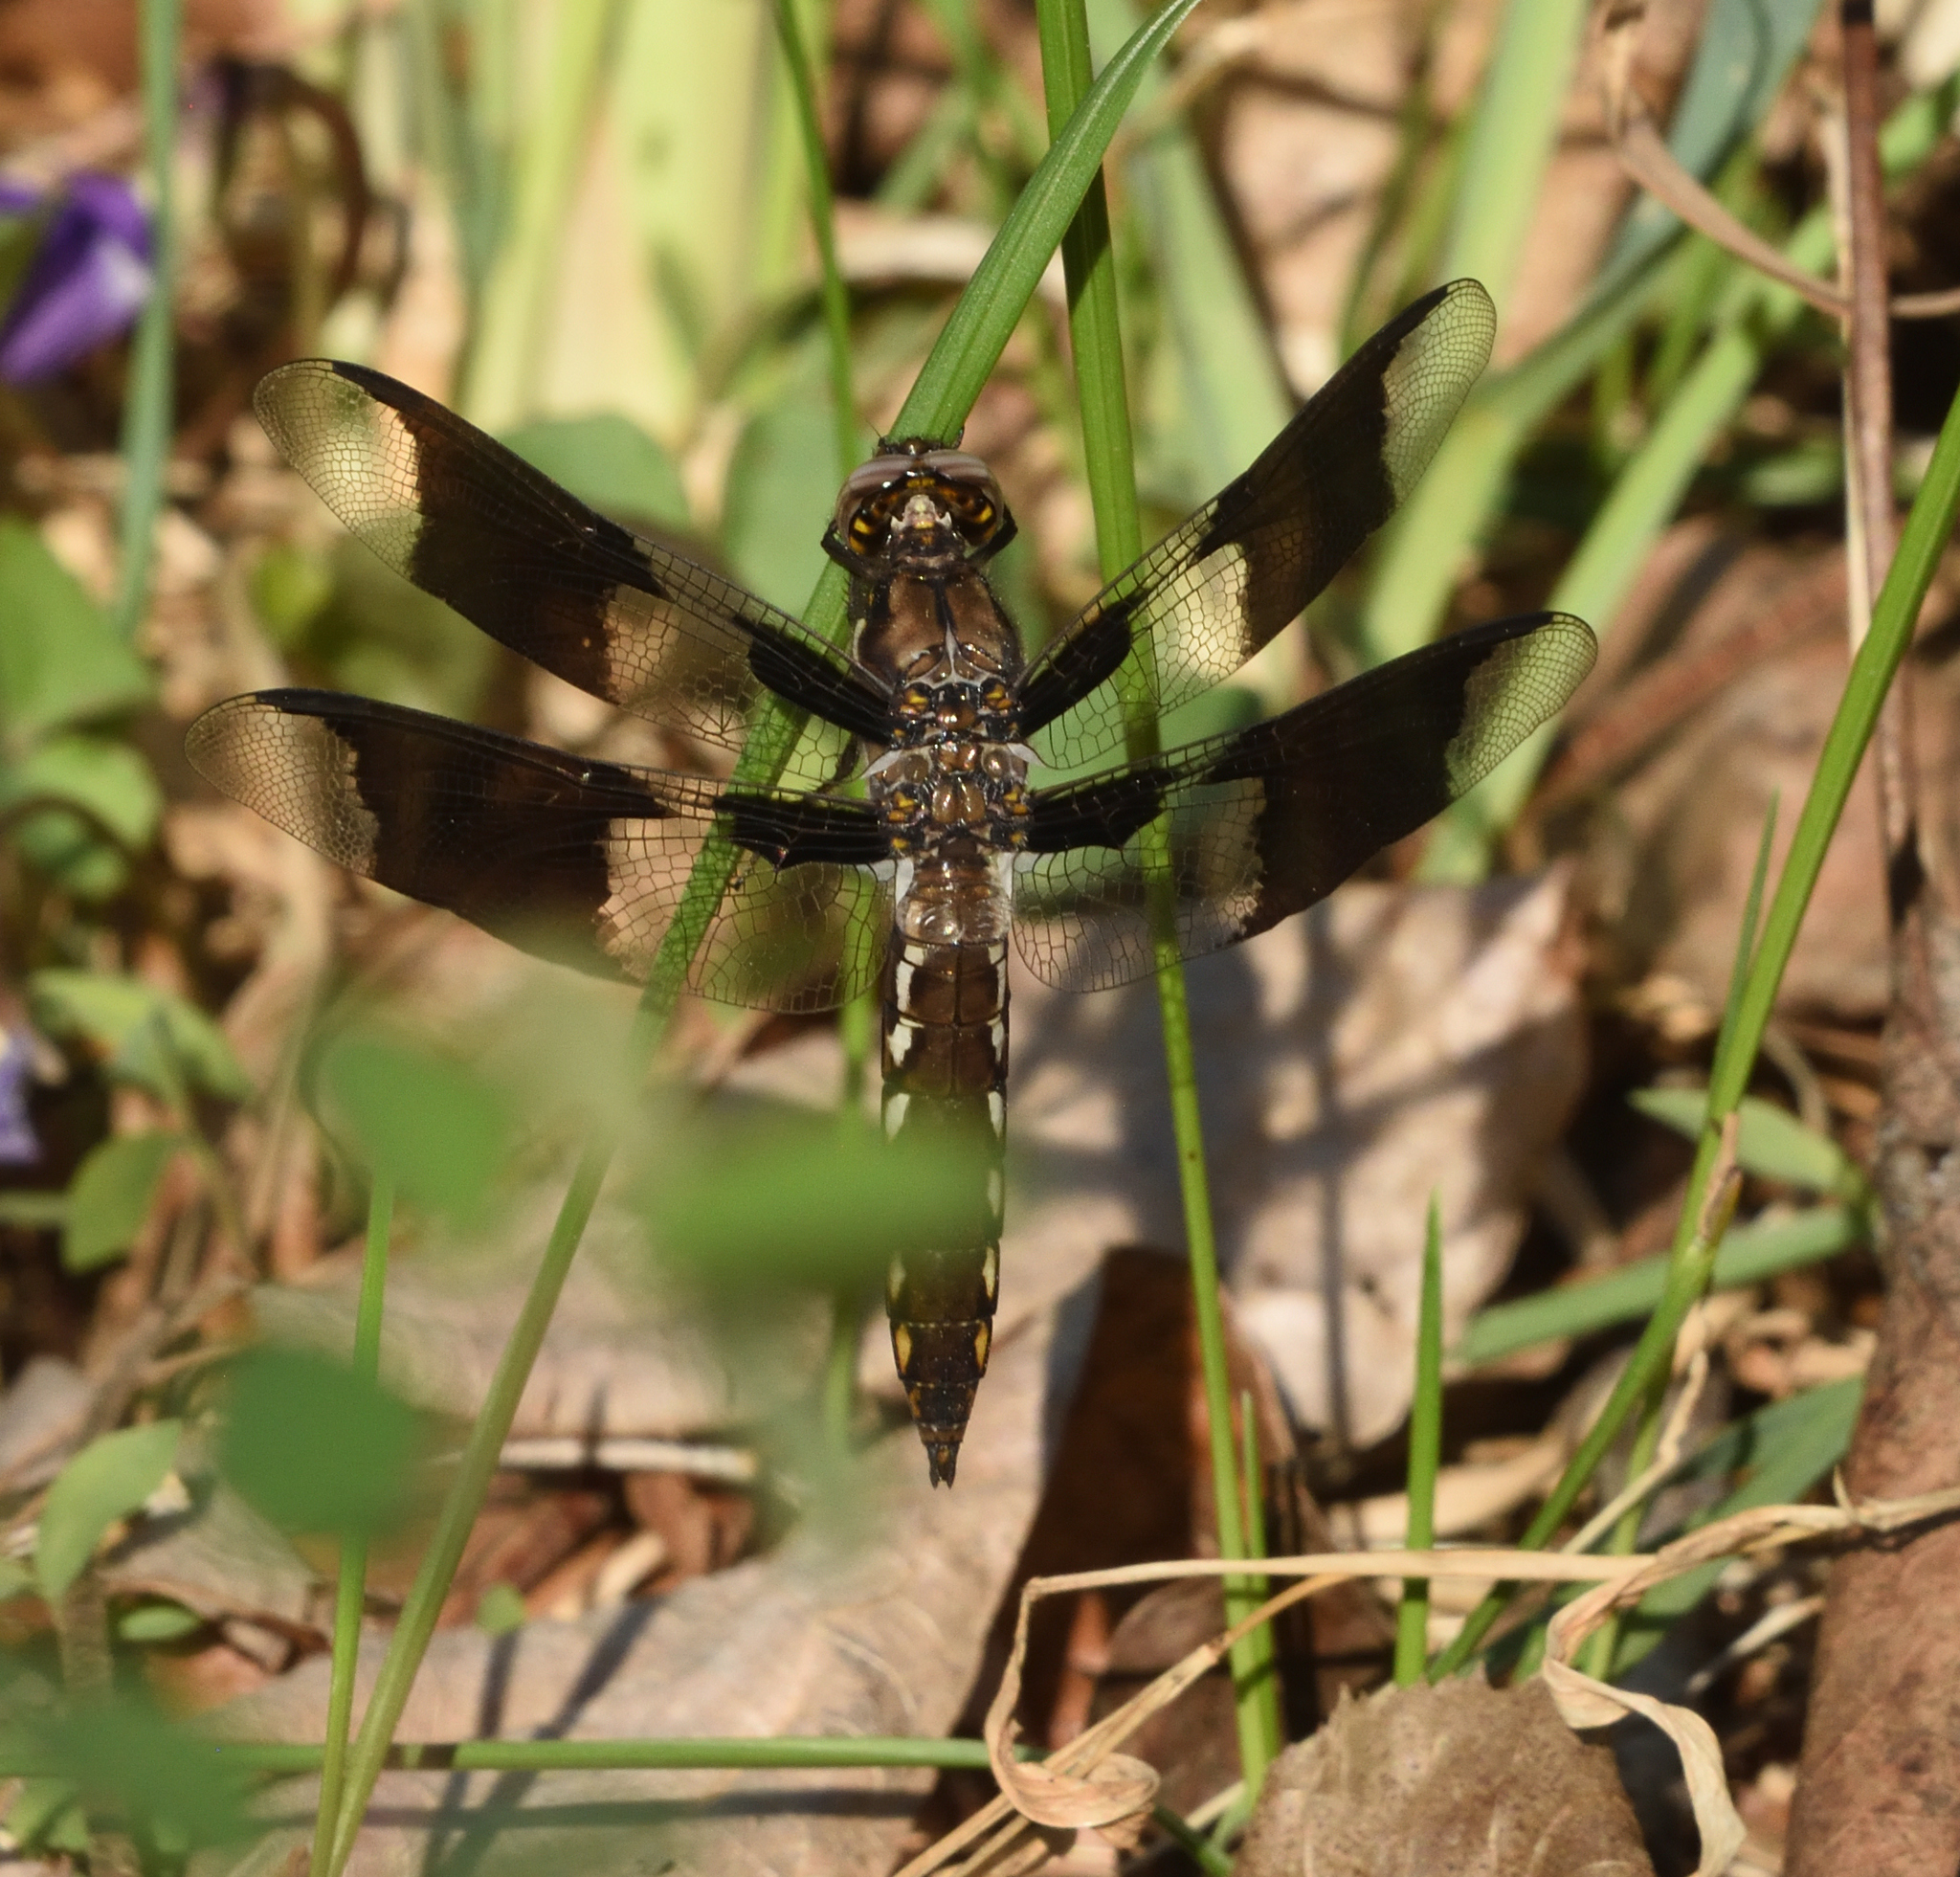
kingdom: Animalia
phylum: Arthropoda
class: Insecta
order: Odonata
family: Libellulidae
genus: Plathemis
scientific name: Plathemis lydia
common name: Common whitetail
